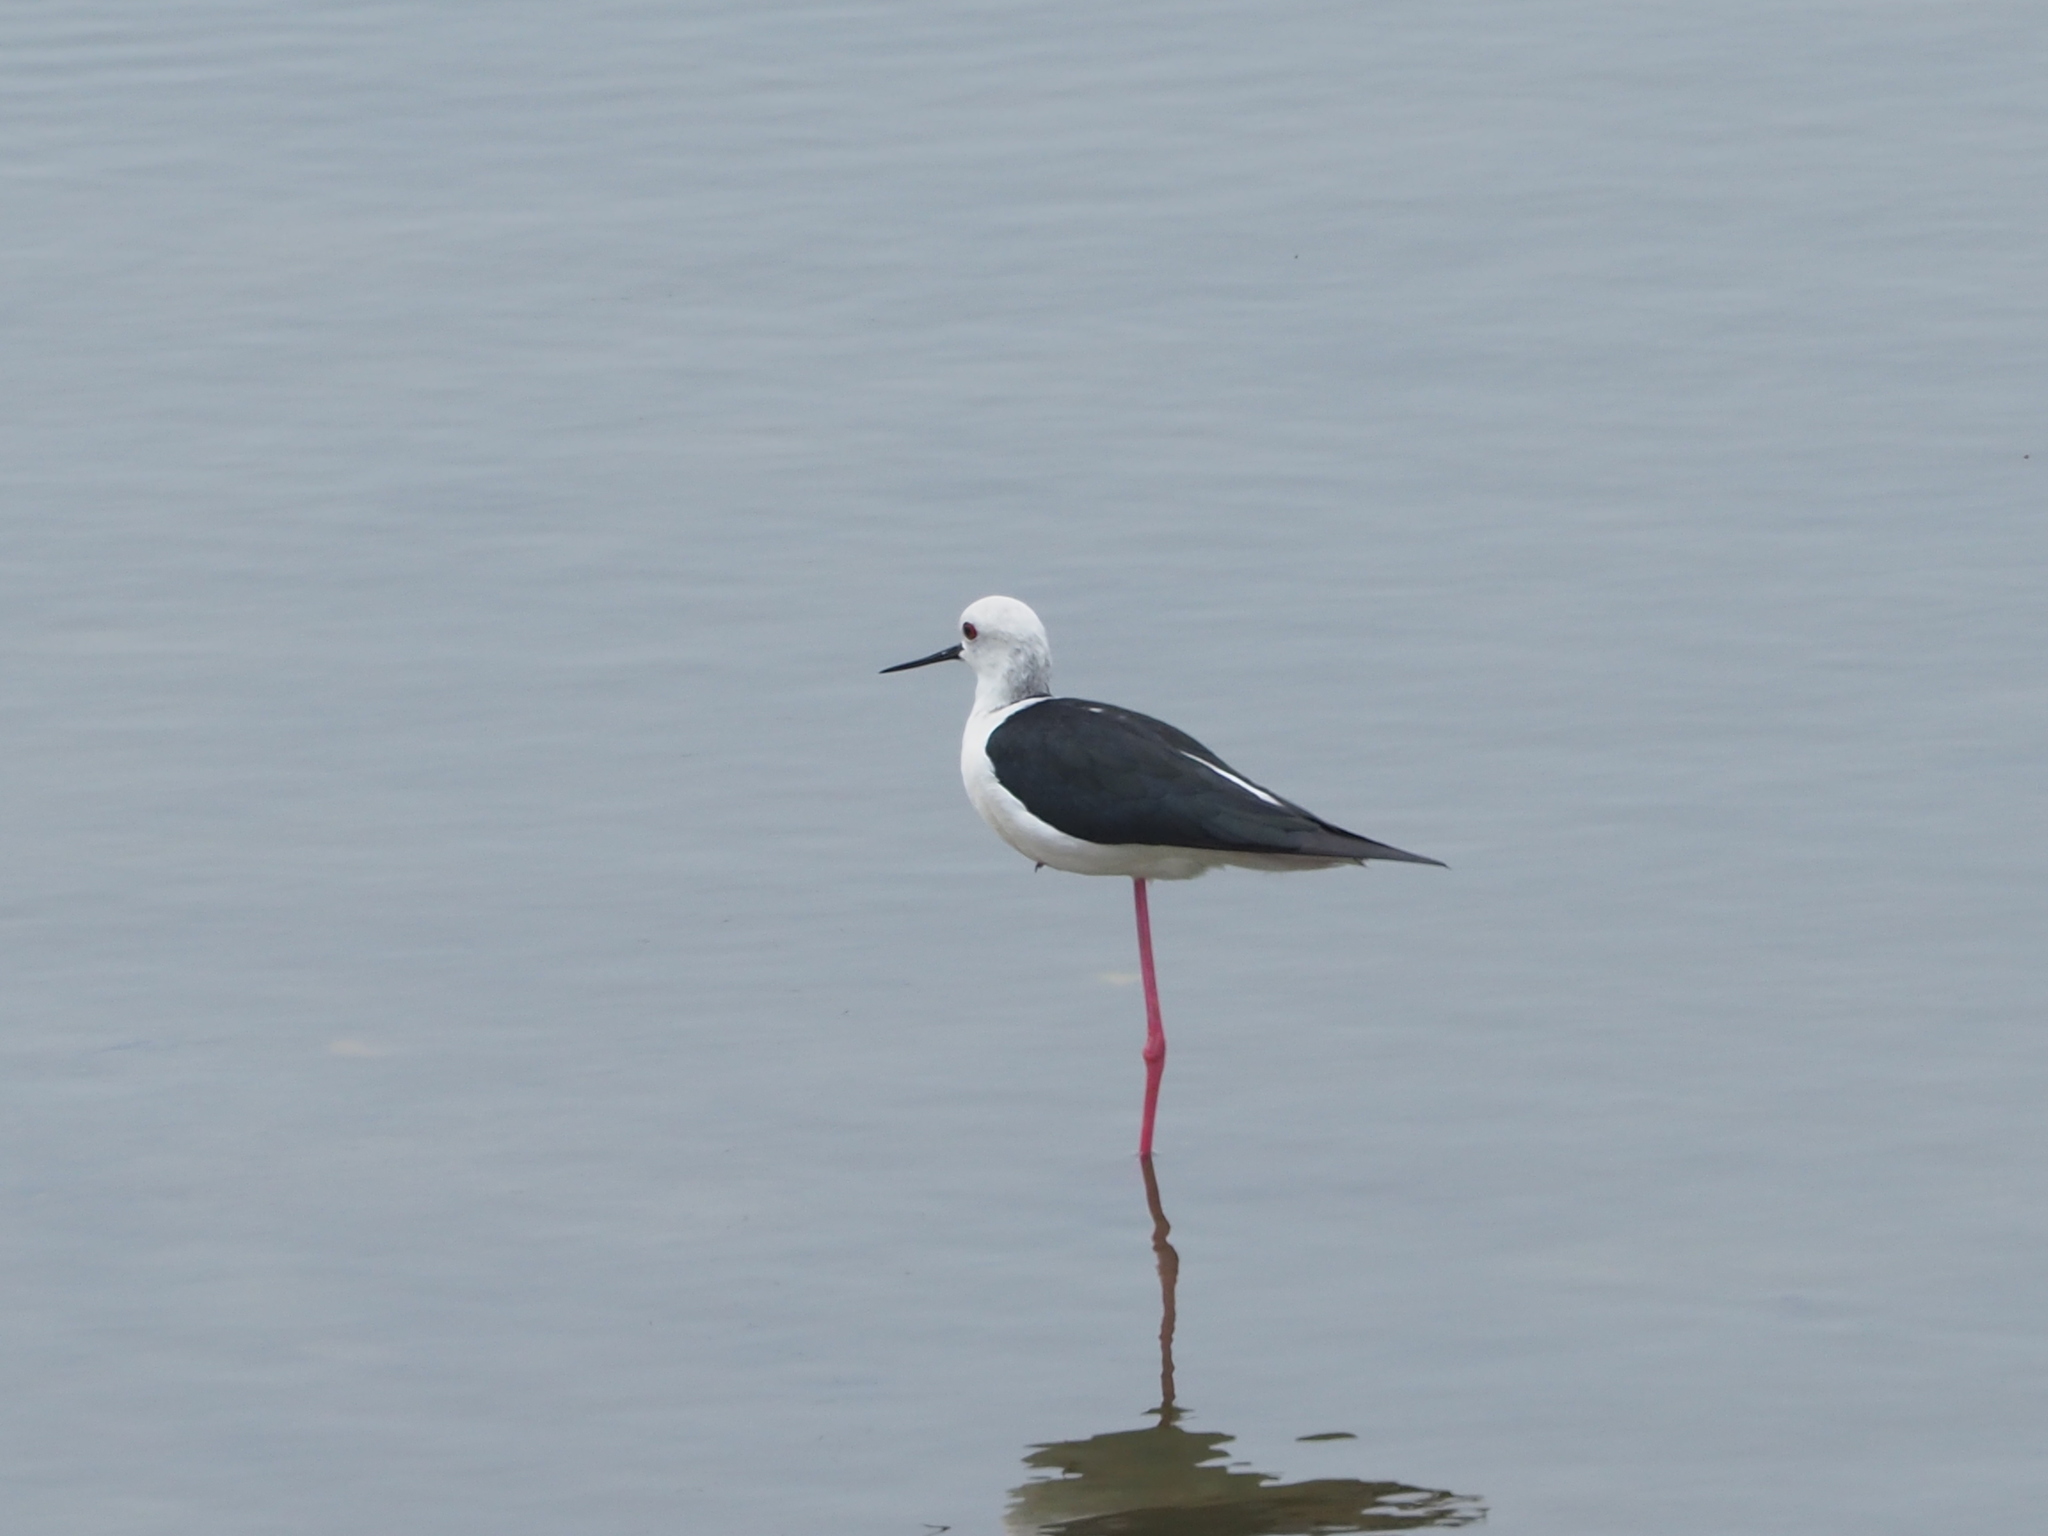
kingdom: Animalia
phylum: Chordata
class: Aves
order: Charadriiformes
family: Recurvirostridae
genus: Himantopus
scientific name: Himantopus himantopus
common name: Black-winged stilt
